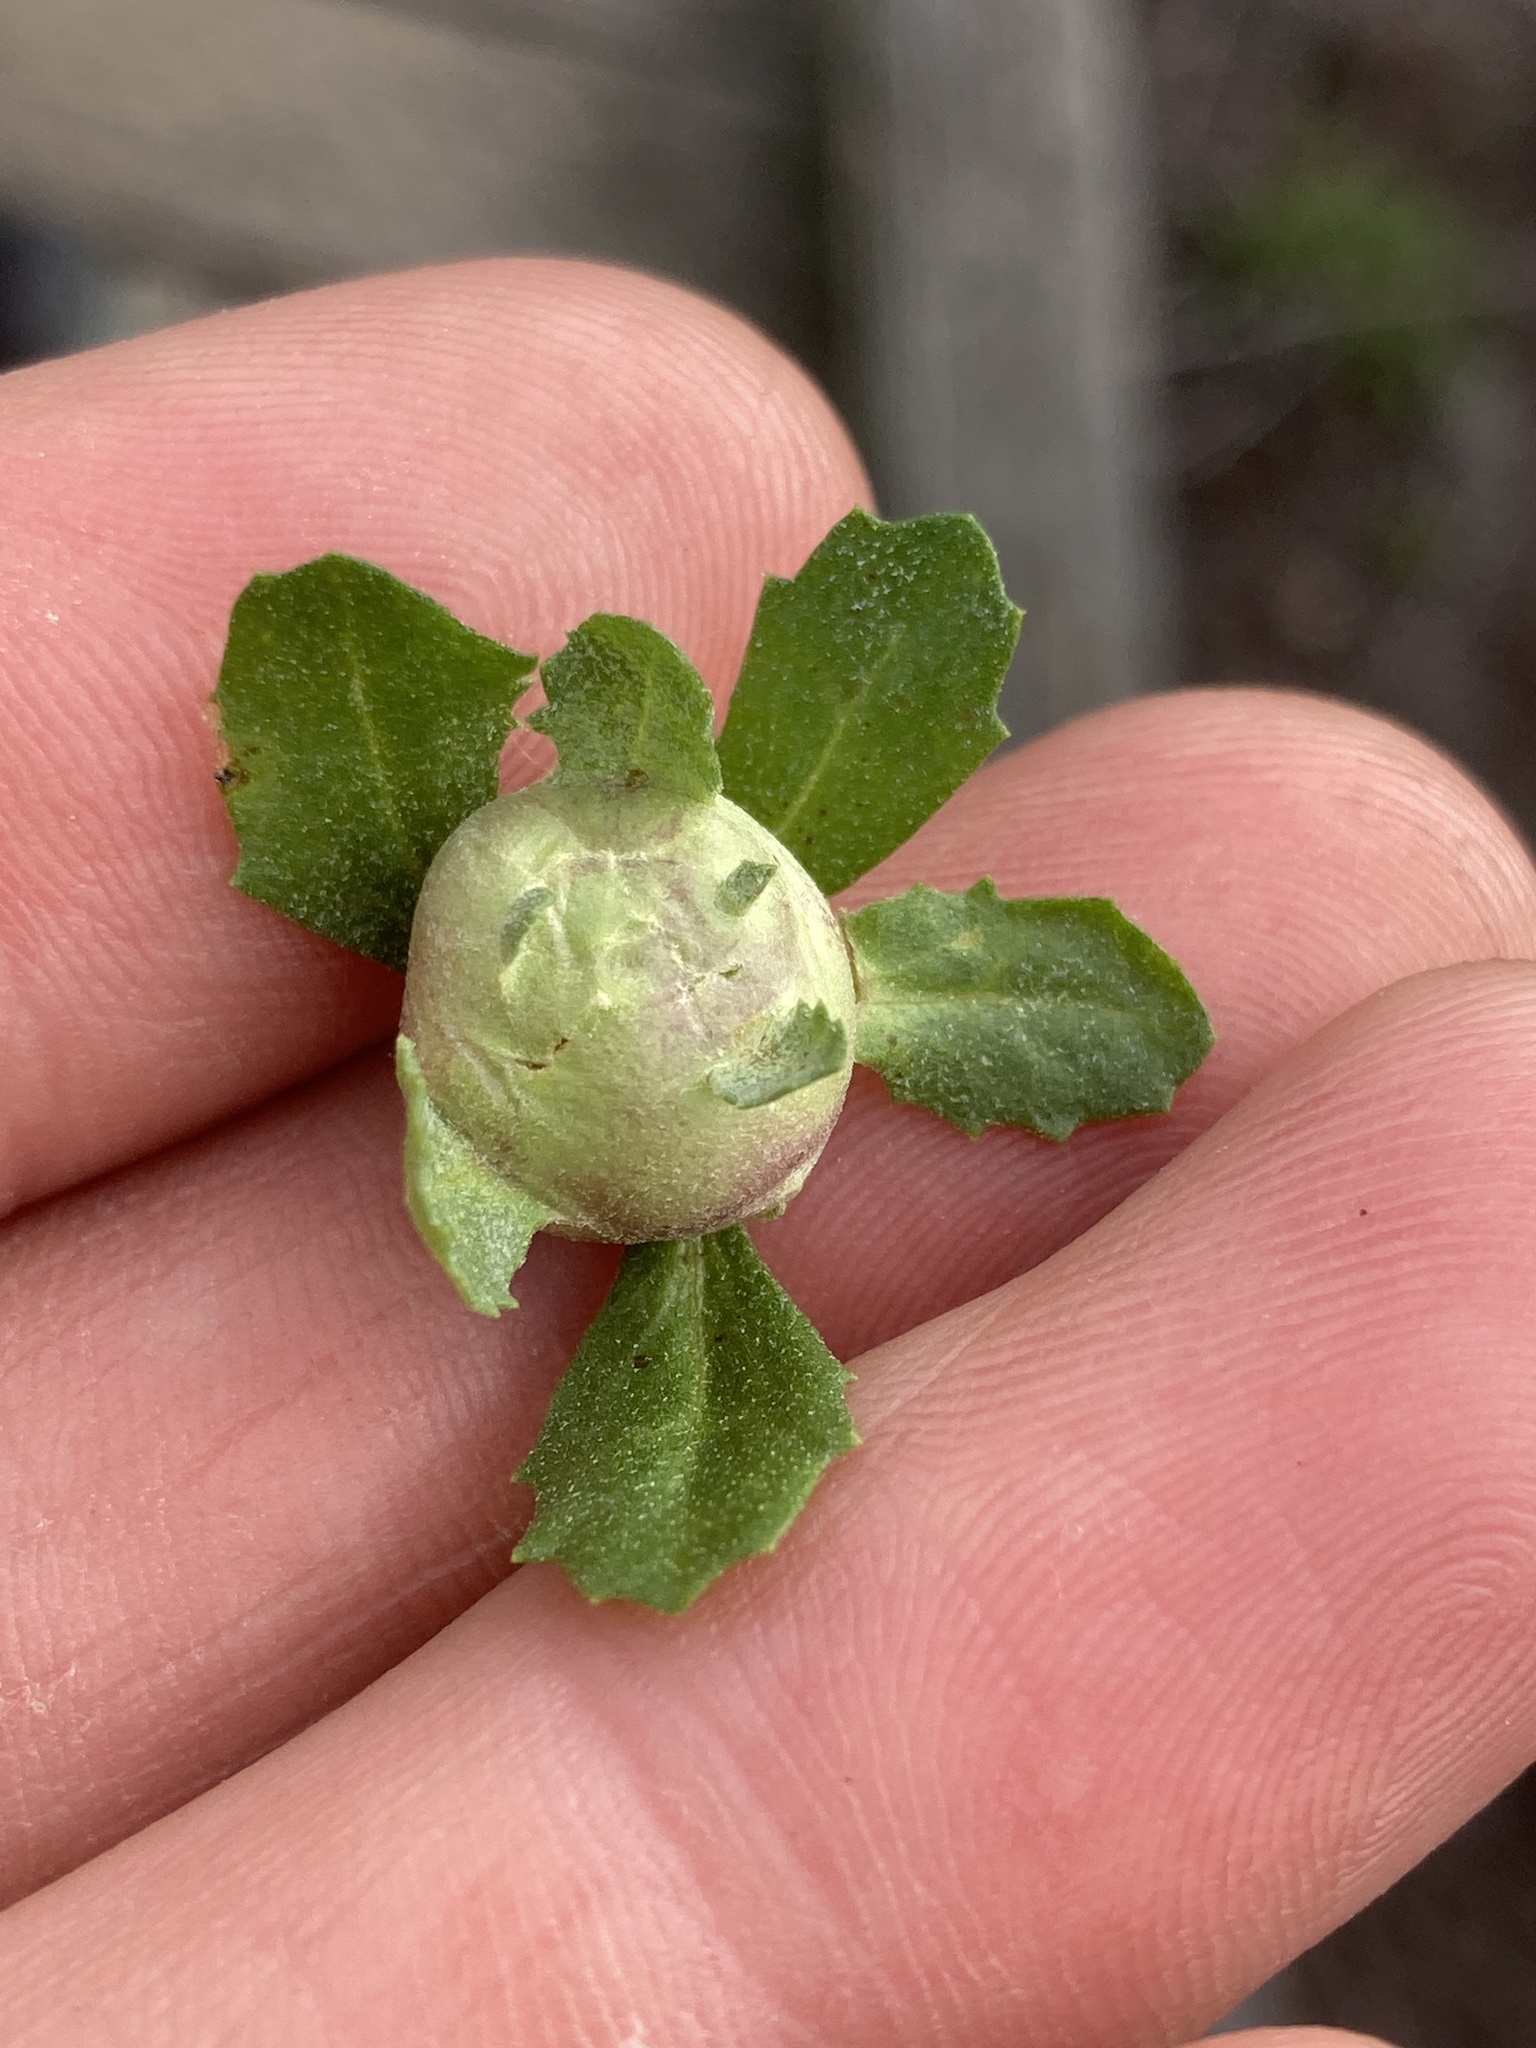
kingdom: Animalia
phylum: Arthropoda
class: Insecta
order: Diptera
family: Cecidomyiidae
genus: Rhopalomyia
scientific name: Rhopalomyia californica
